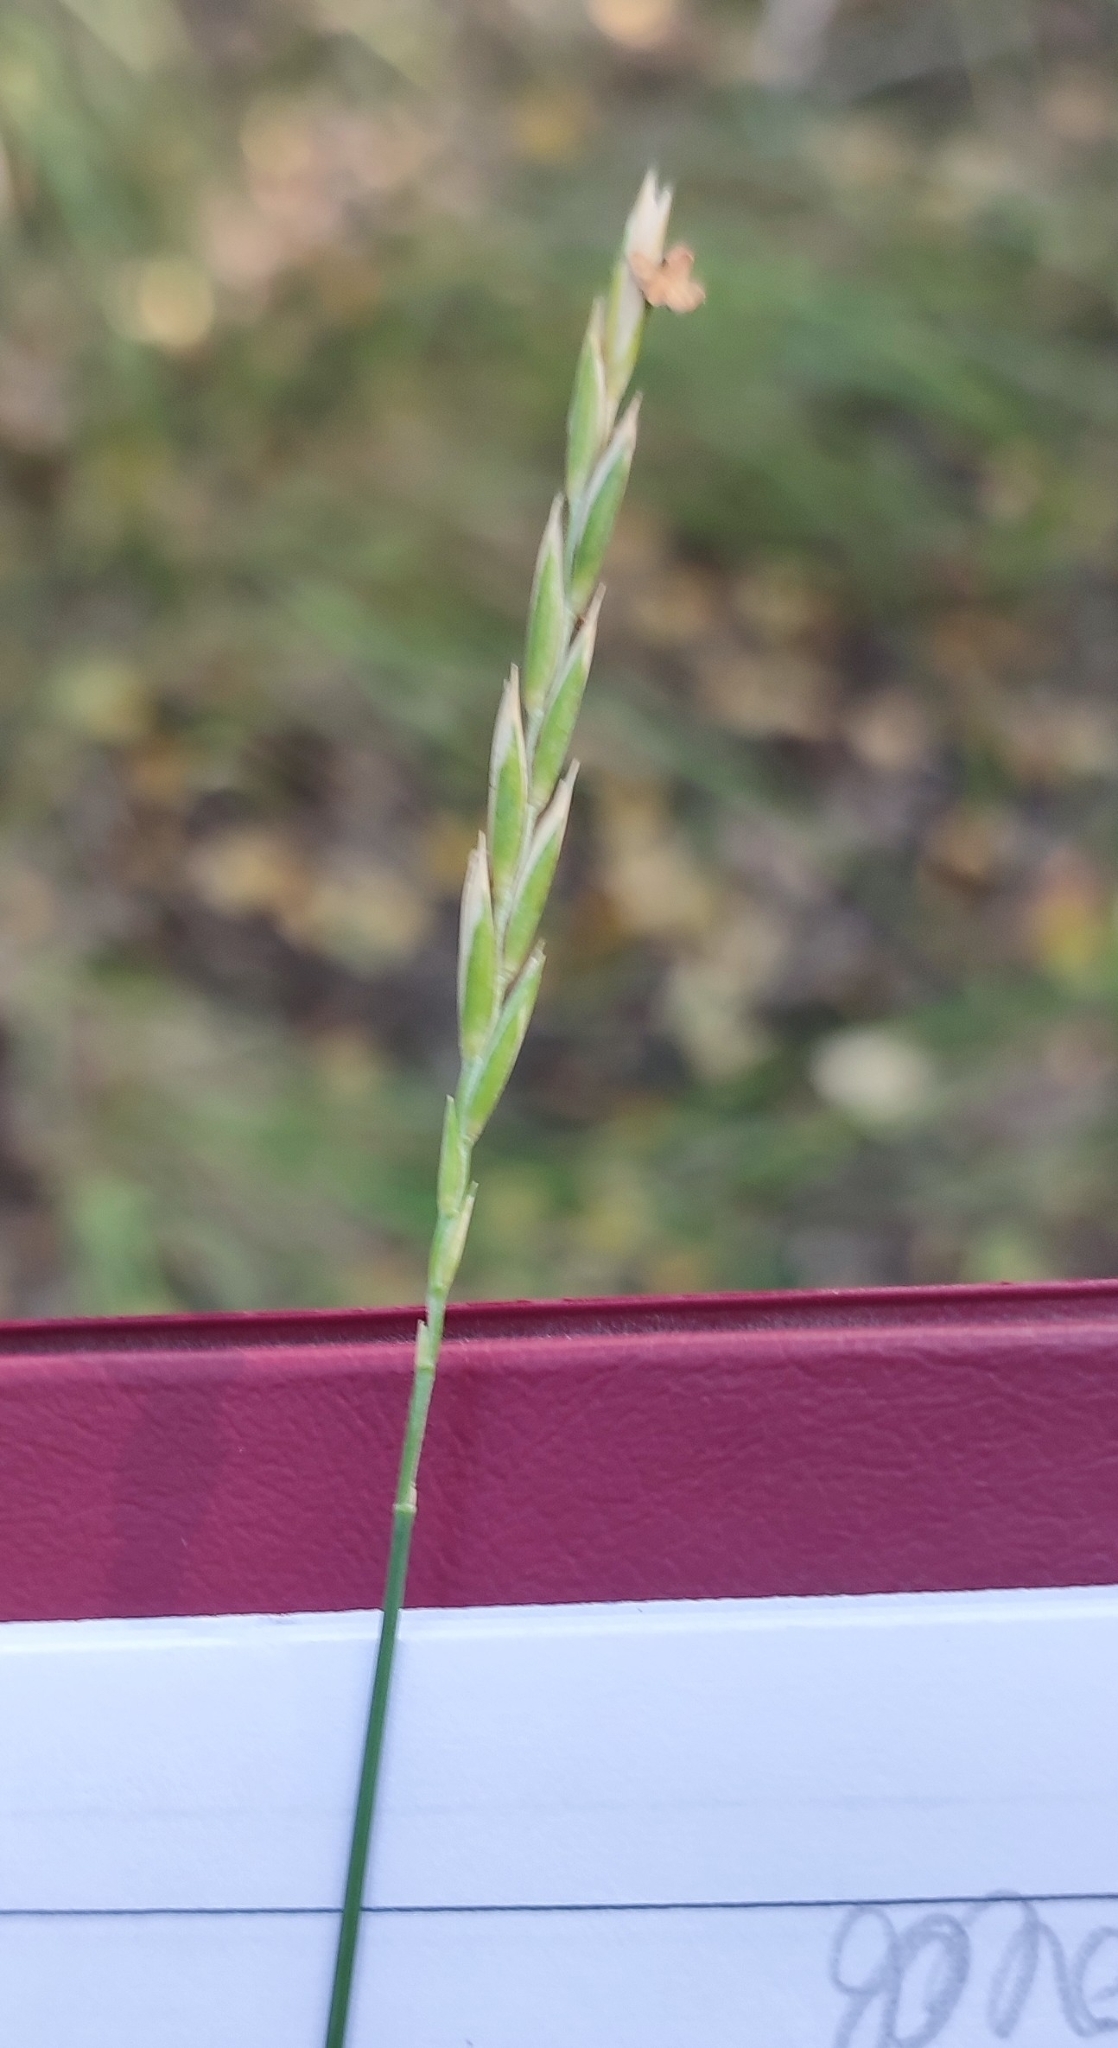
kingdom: Plantae
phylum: Tracheophyta
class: Liliopsida
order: Poales
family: Poaceae
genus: Elymus
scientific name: Elymus repens
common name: Quackgrass
